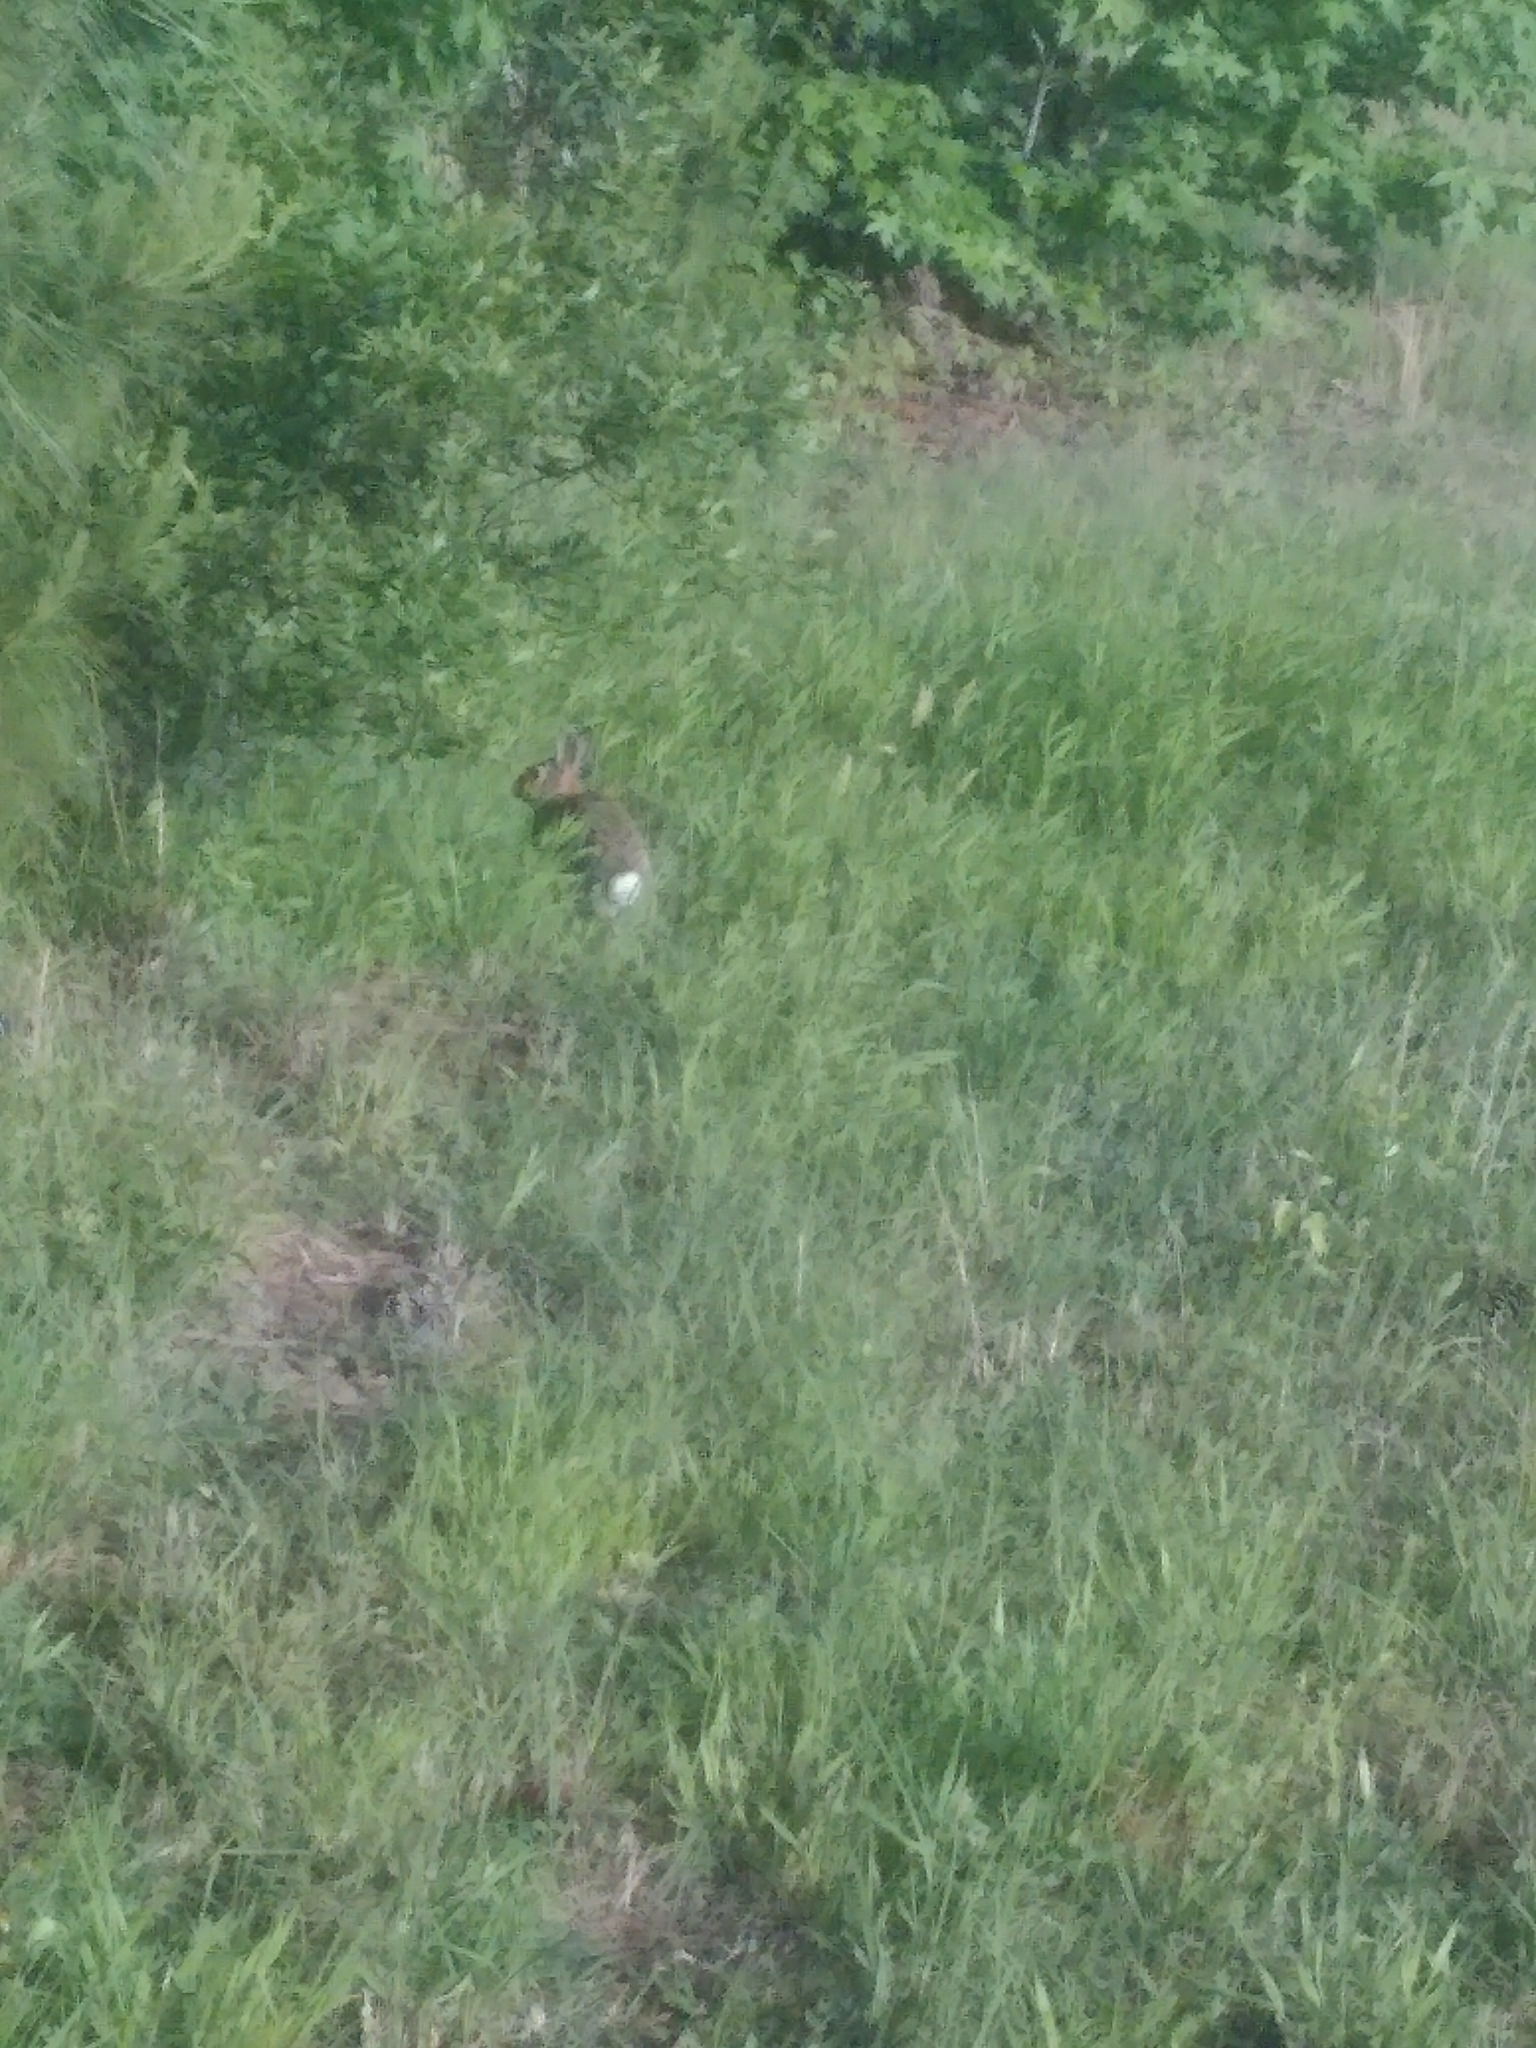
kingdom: Animalia
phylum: Chordata
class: Mammalia
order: Lagomorpha
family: Leporidae
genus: Sylvilagus
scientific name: Sylvilagus floridanus
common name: Eastern cottontail
